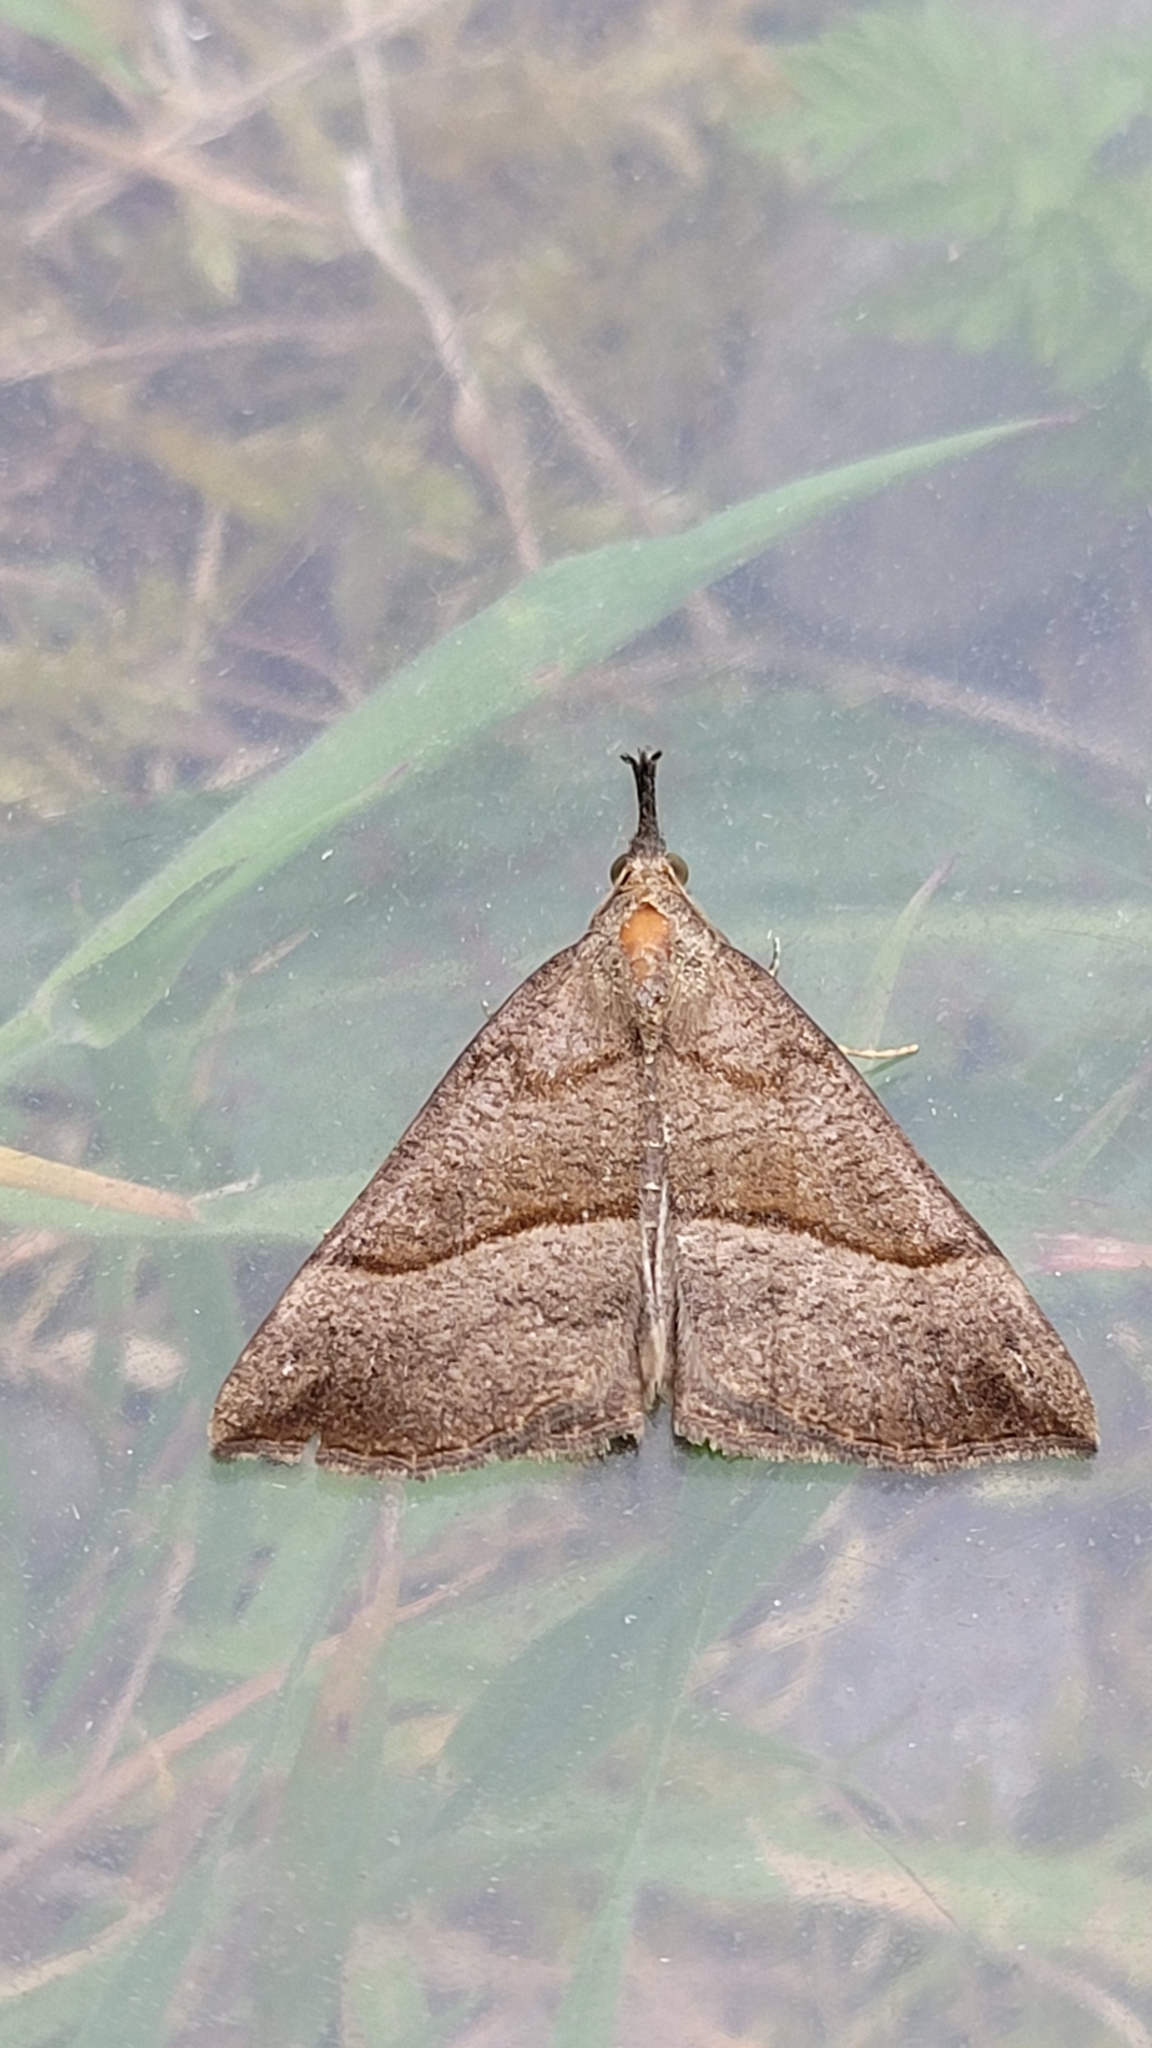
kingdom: Animalia
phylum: Arthropoda
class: Insecta
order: Lepidoptera
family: Erebidae
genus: Hypena
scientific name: Hypena proboscidalis
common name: Snout
